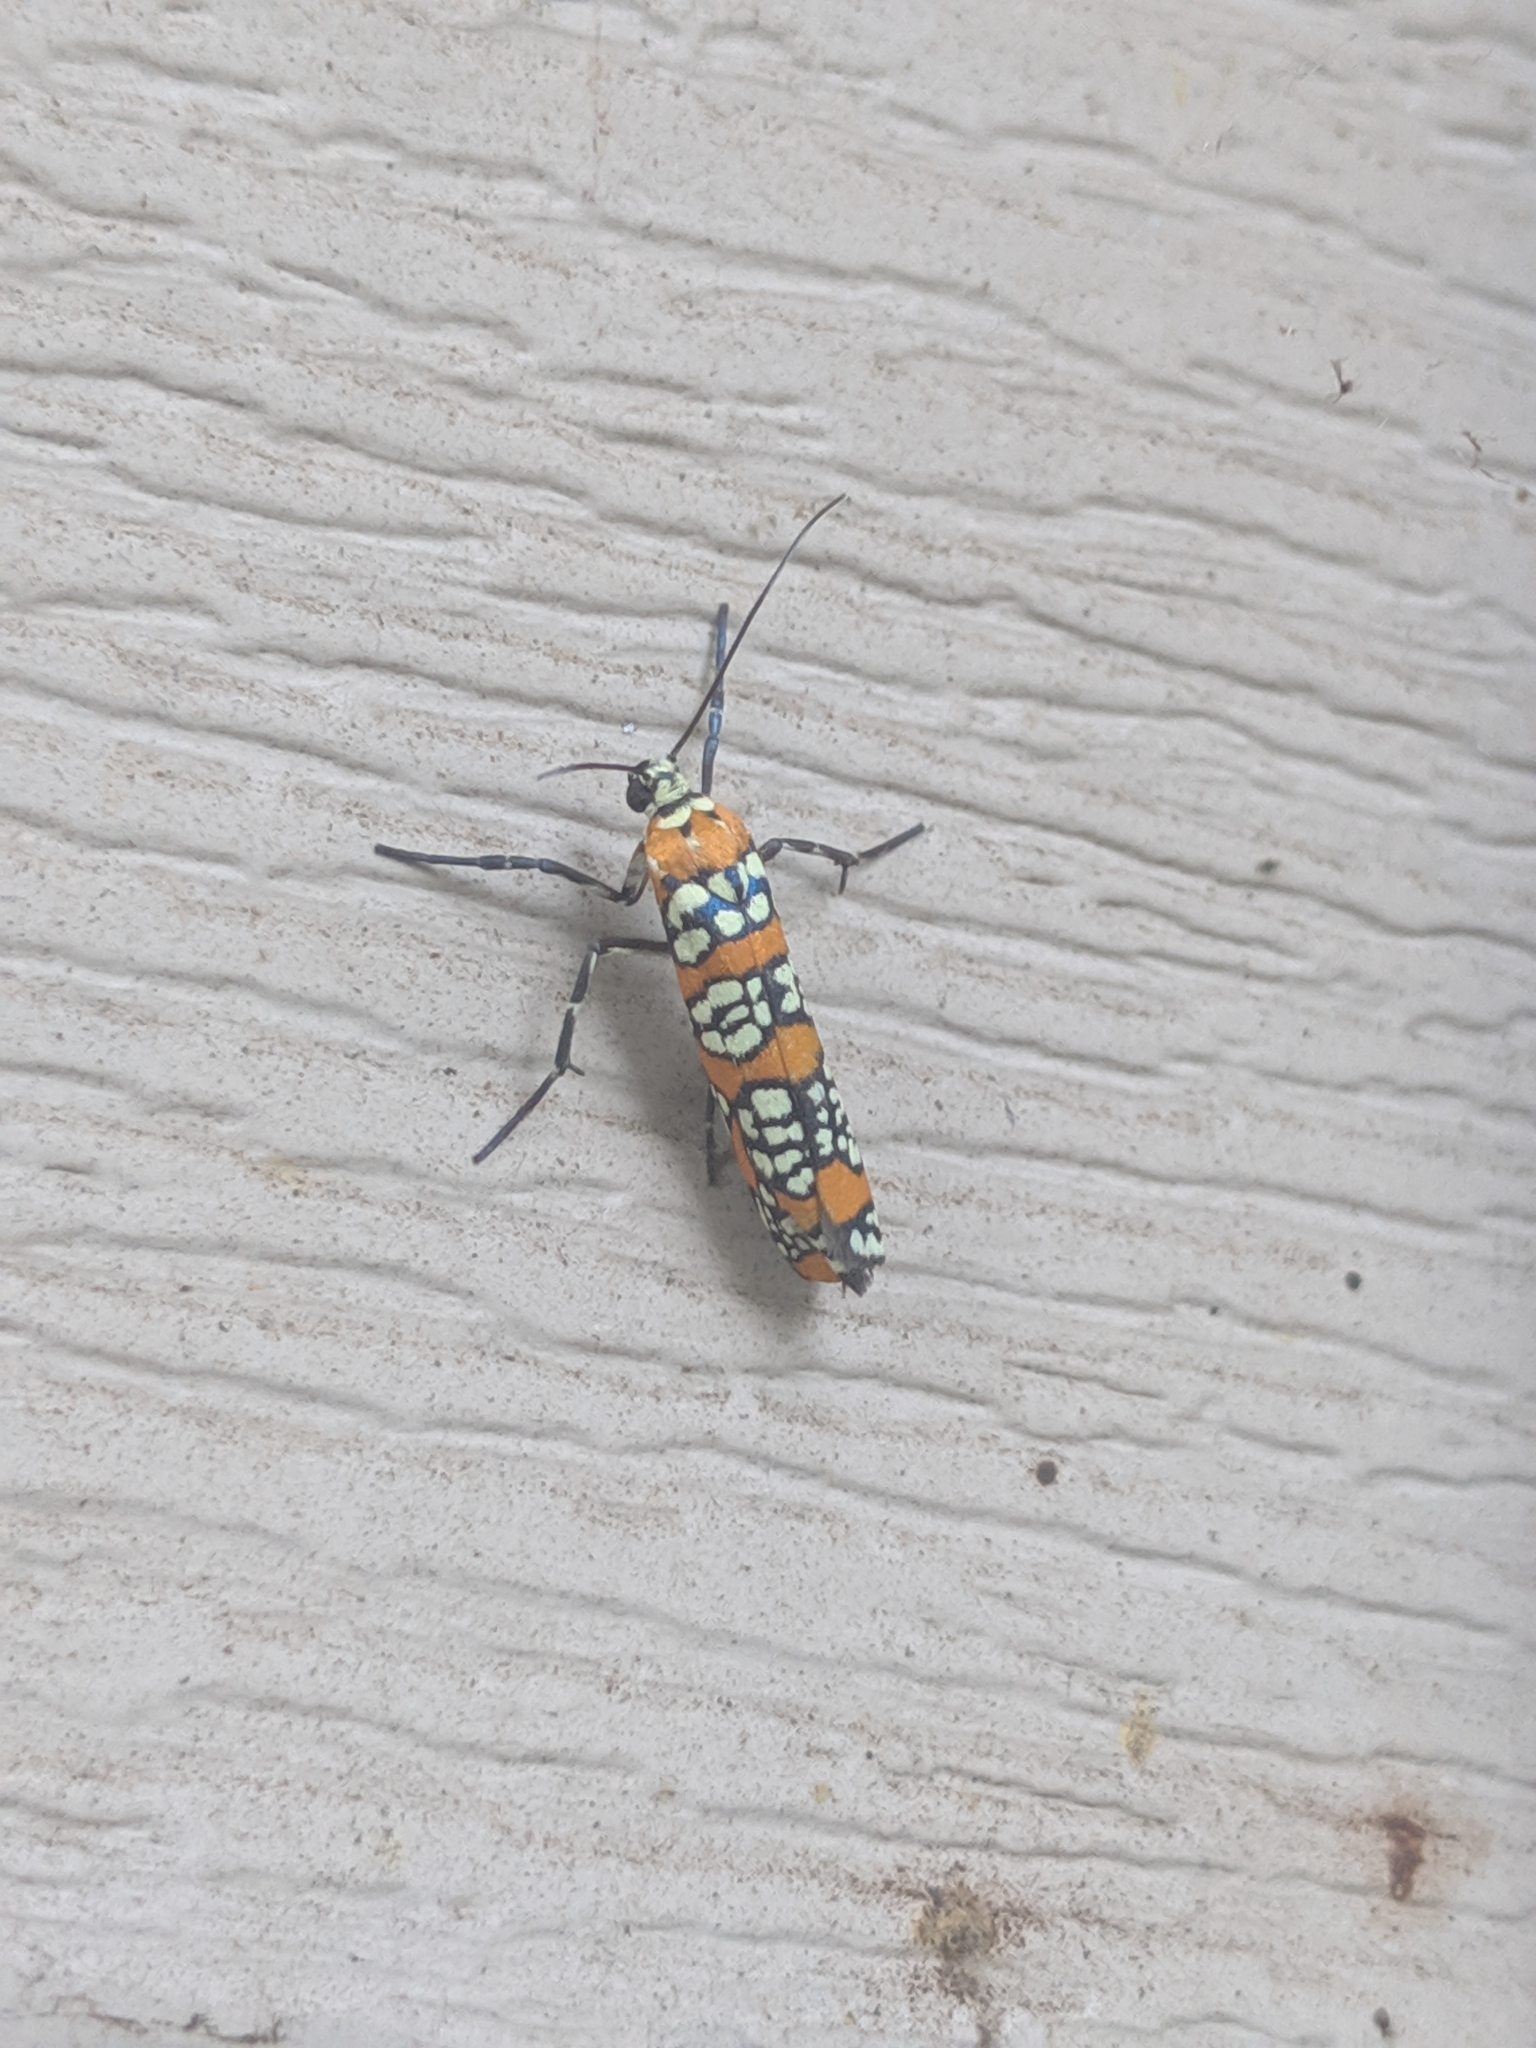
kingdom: Animalia
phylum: Arthropoda
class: Insecta
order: Lepidoptera
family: Attevidae
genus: Atteva
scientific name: Atteva punctella
